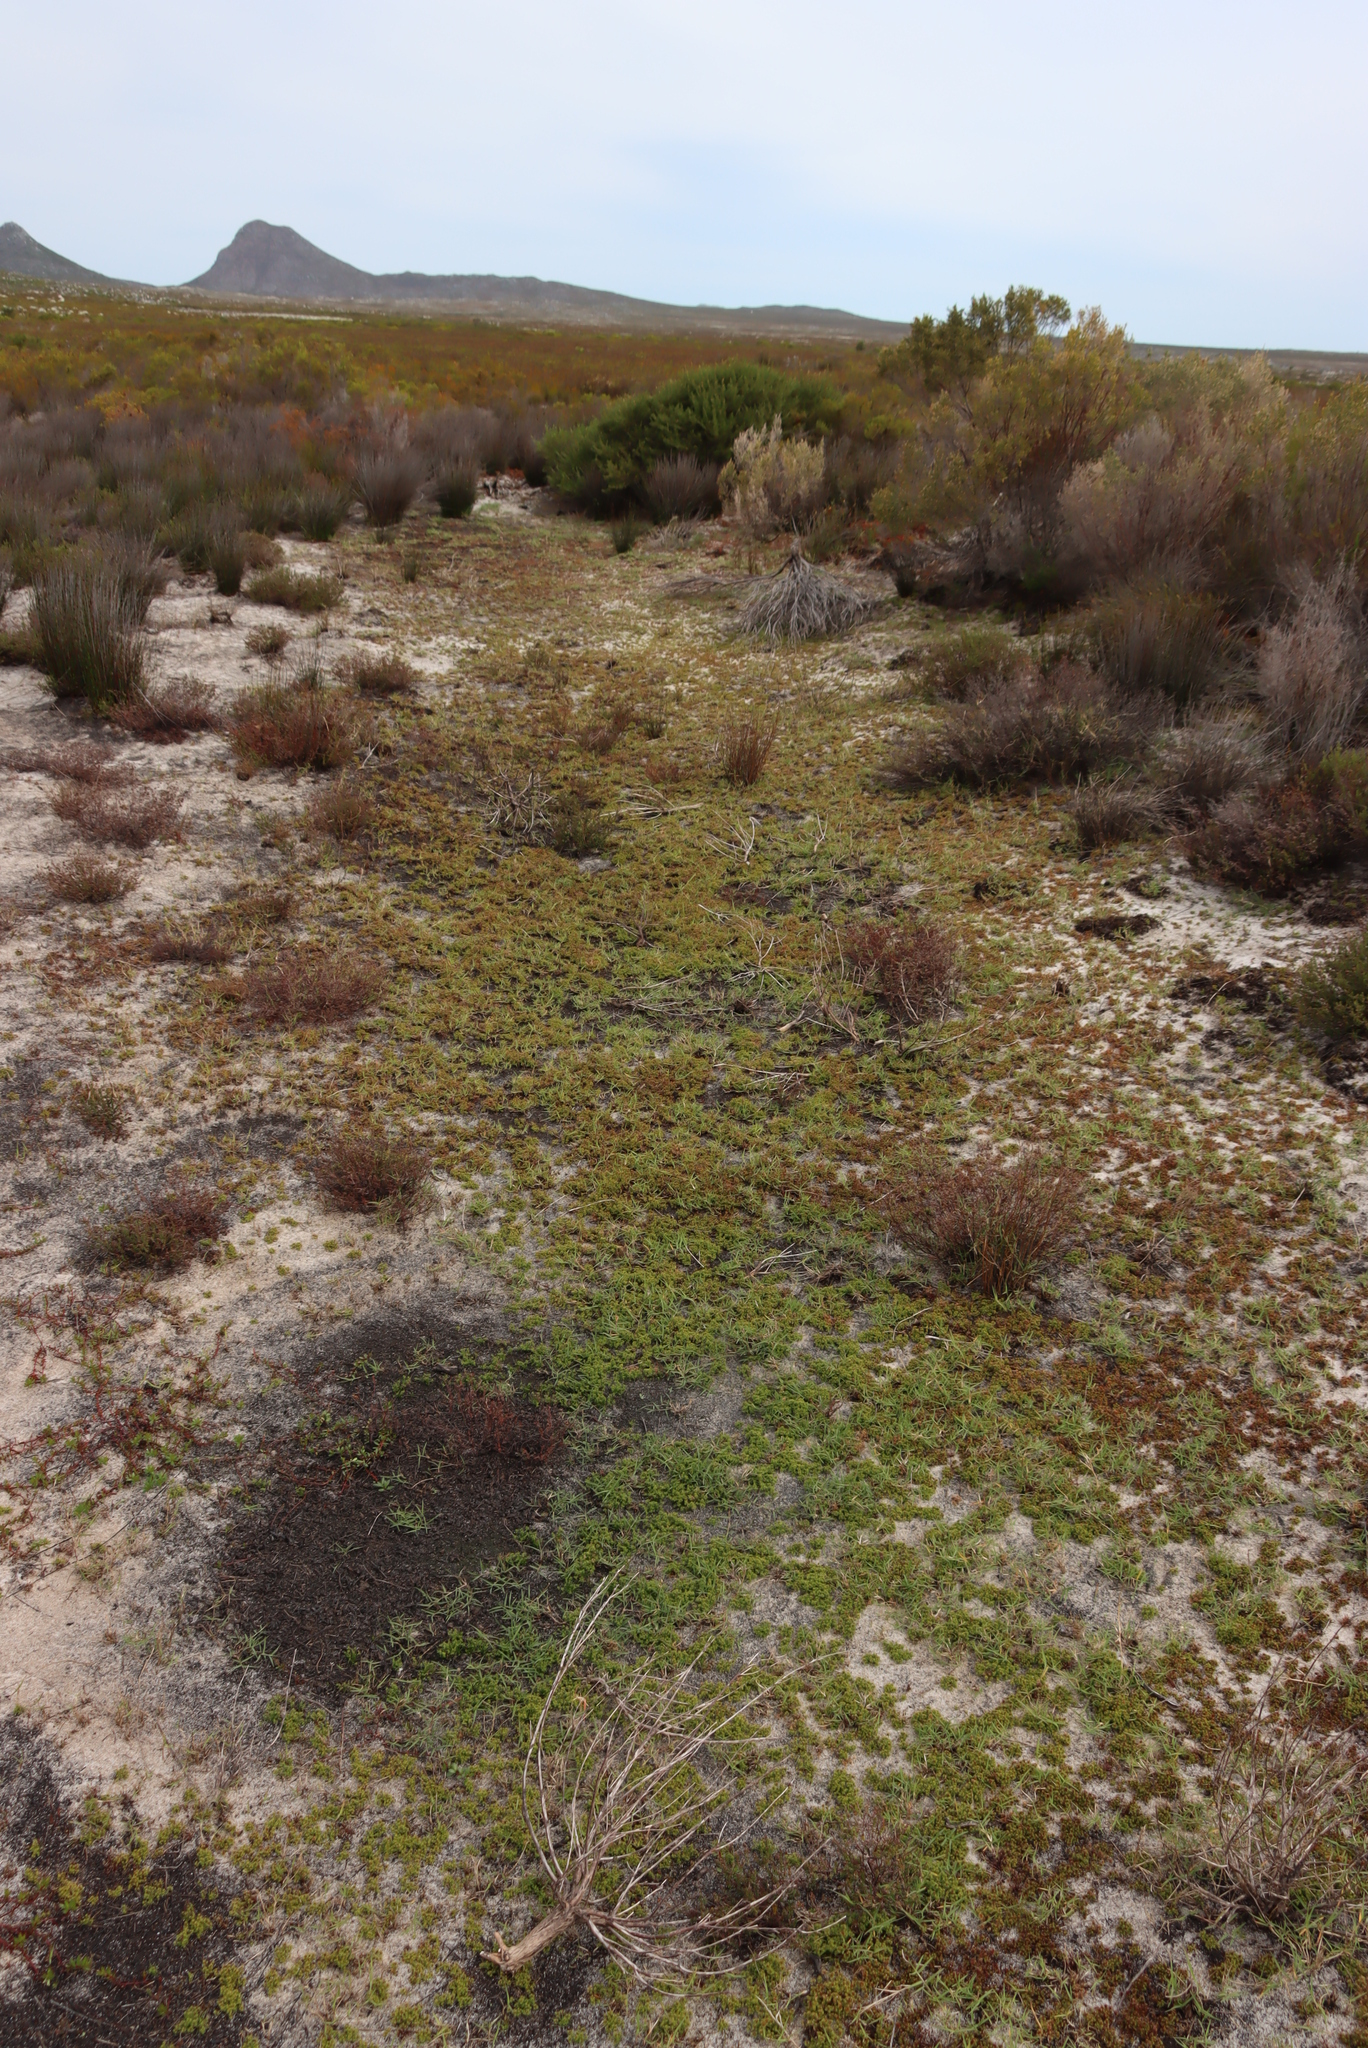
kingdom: Plantae
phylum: Tracheophyta
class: Magnoliopsida
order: Saxifragales
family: Crassulaceae
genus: Crassula
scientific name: Crassula glomerata
